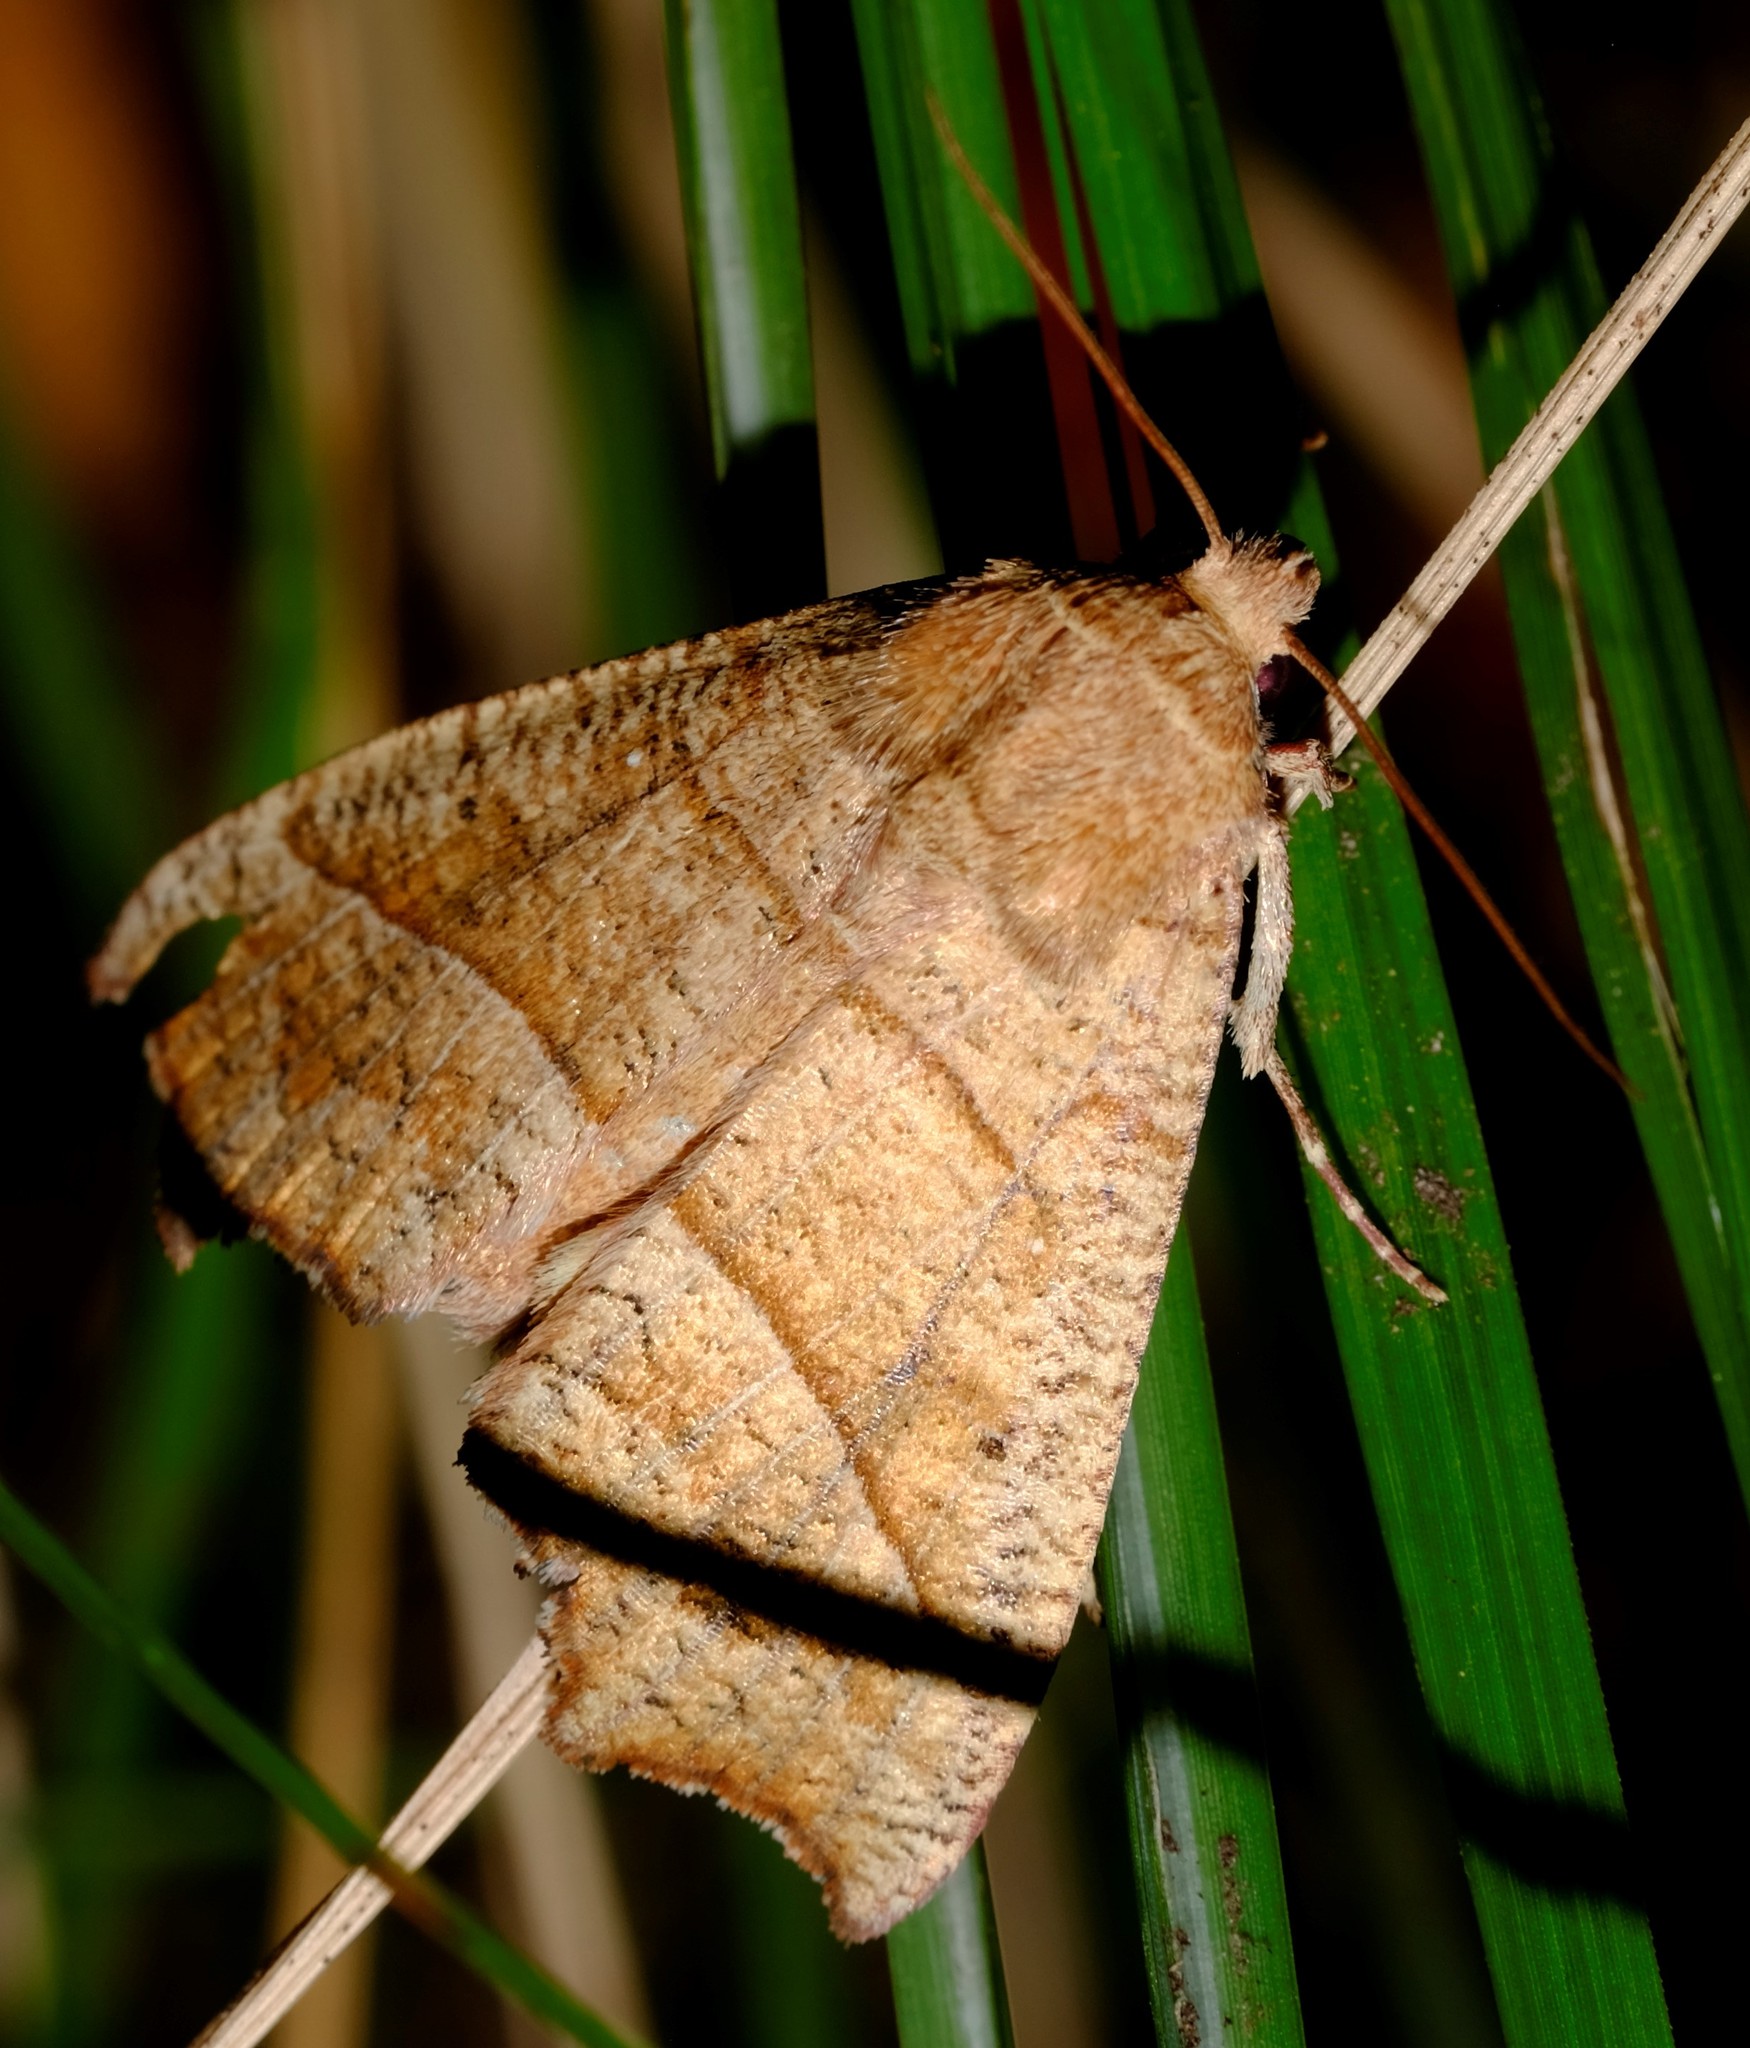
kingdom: Animalia
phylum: Arthropoda
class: Insecta
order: Lepidoptera
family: Erebidae
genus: Anomis
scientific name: Anomis psamathodes
